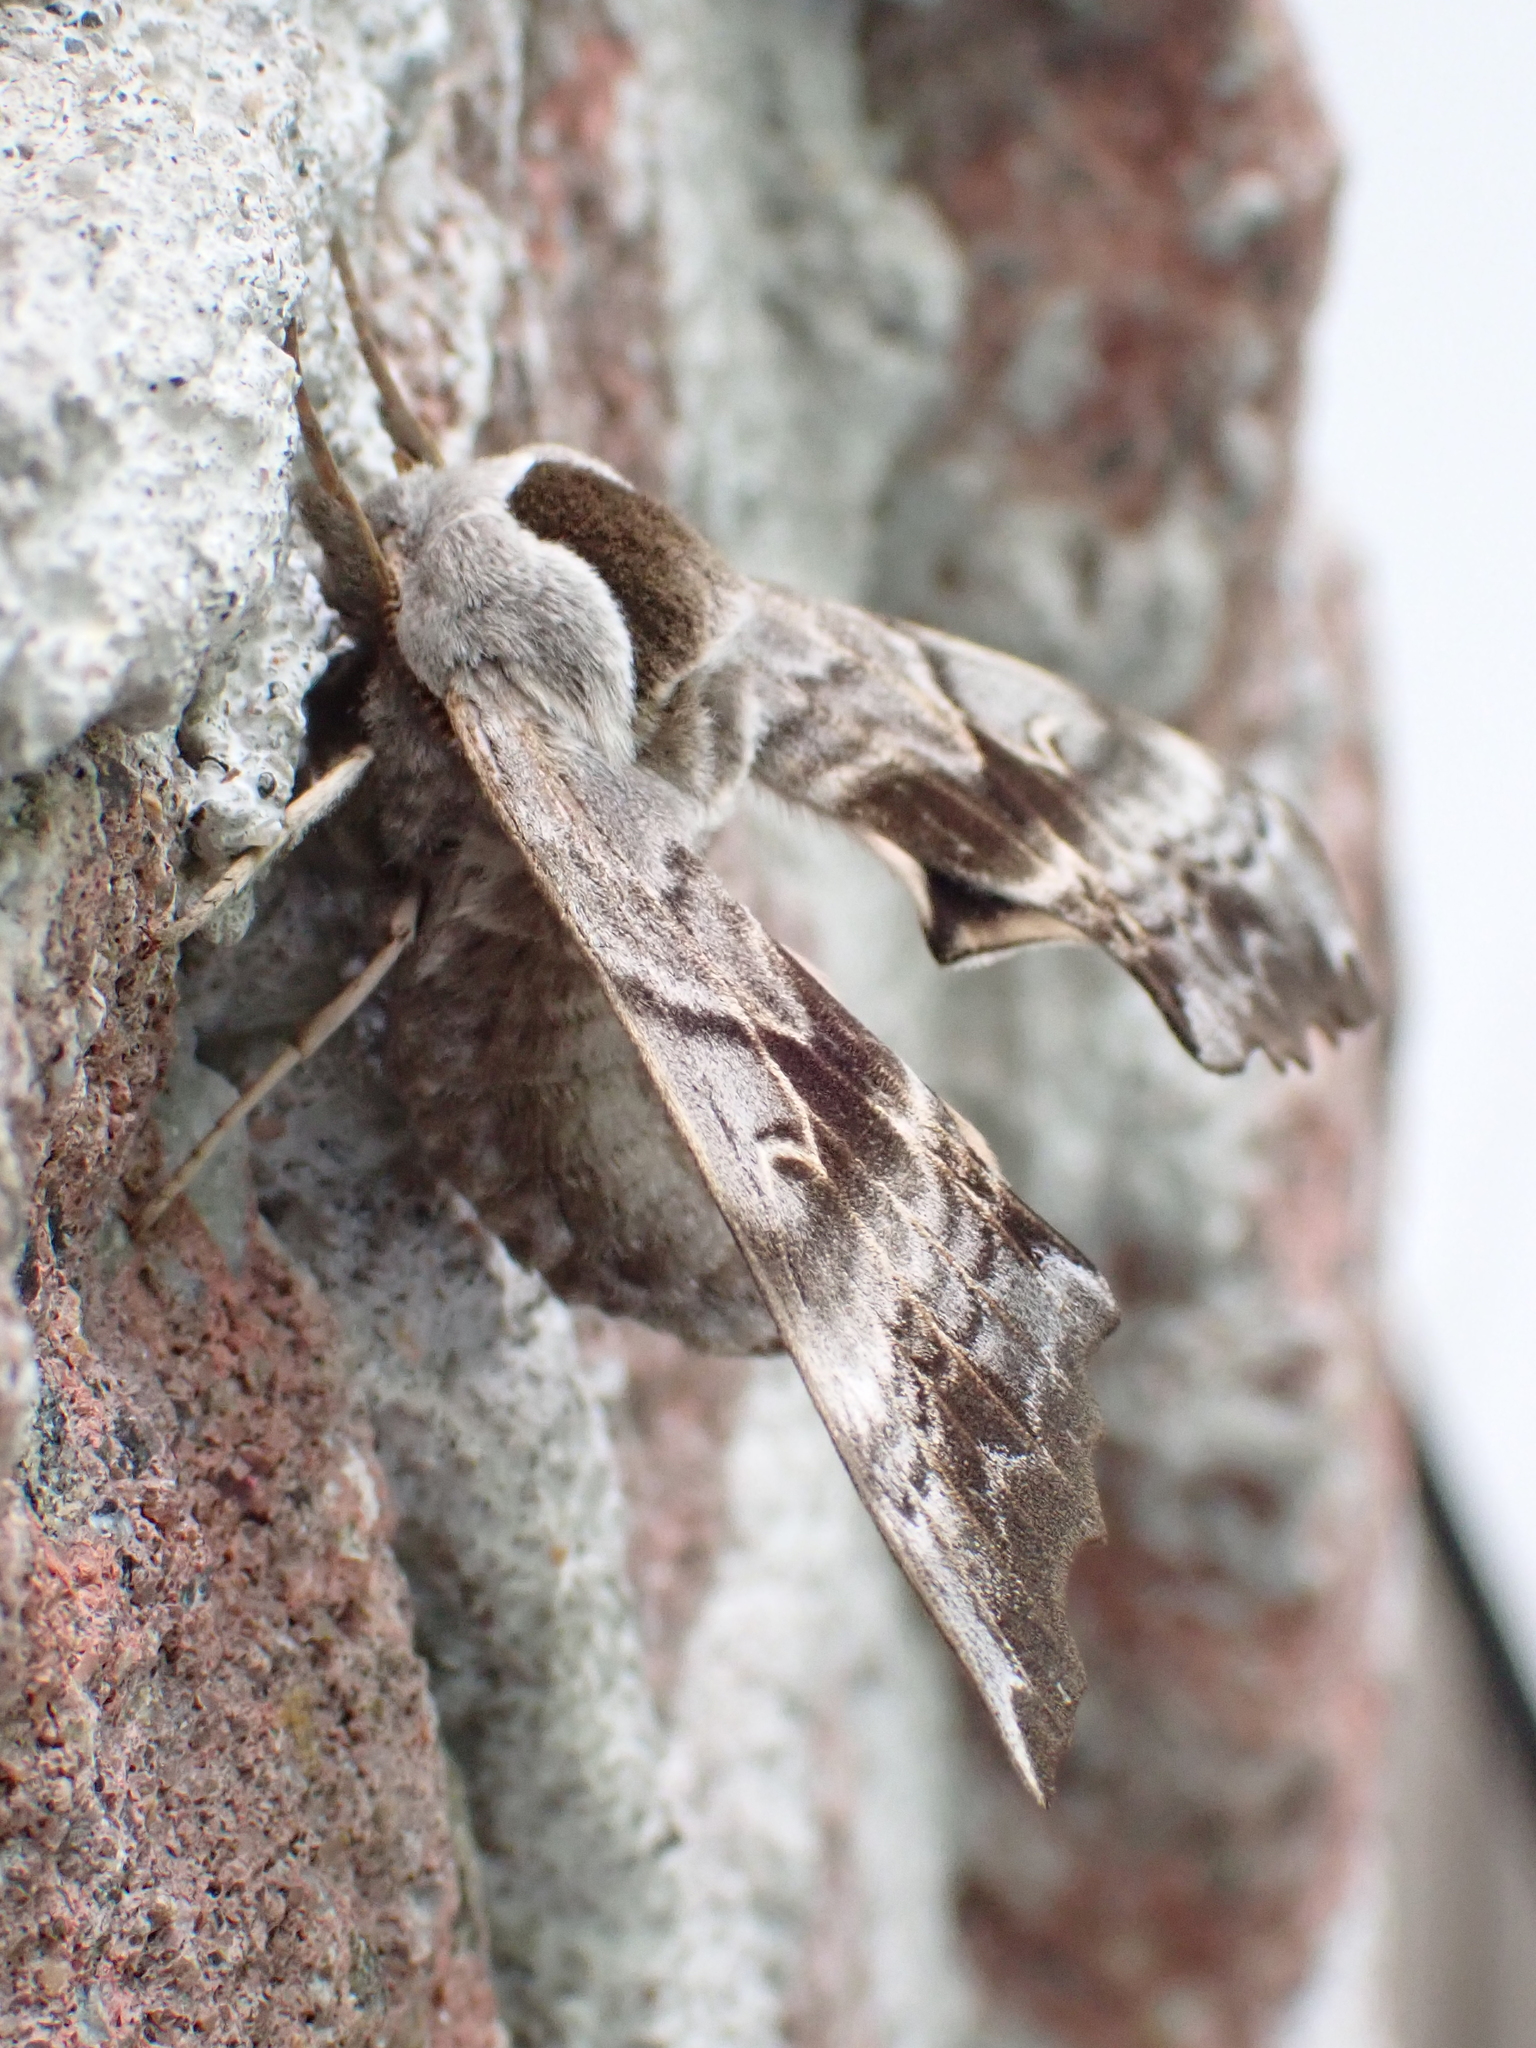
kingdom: Animalia
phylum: Arthropoda
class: Insecta
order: Lepidoptera
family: Sphingidae
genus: Smerinthus
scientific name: Smerinthus cerisyi
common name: Cerisy's sphinx moth
